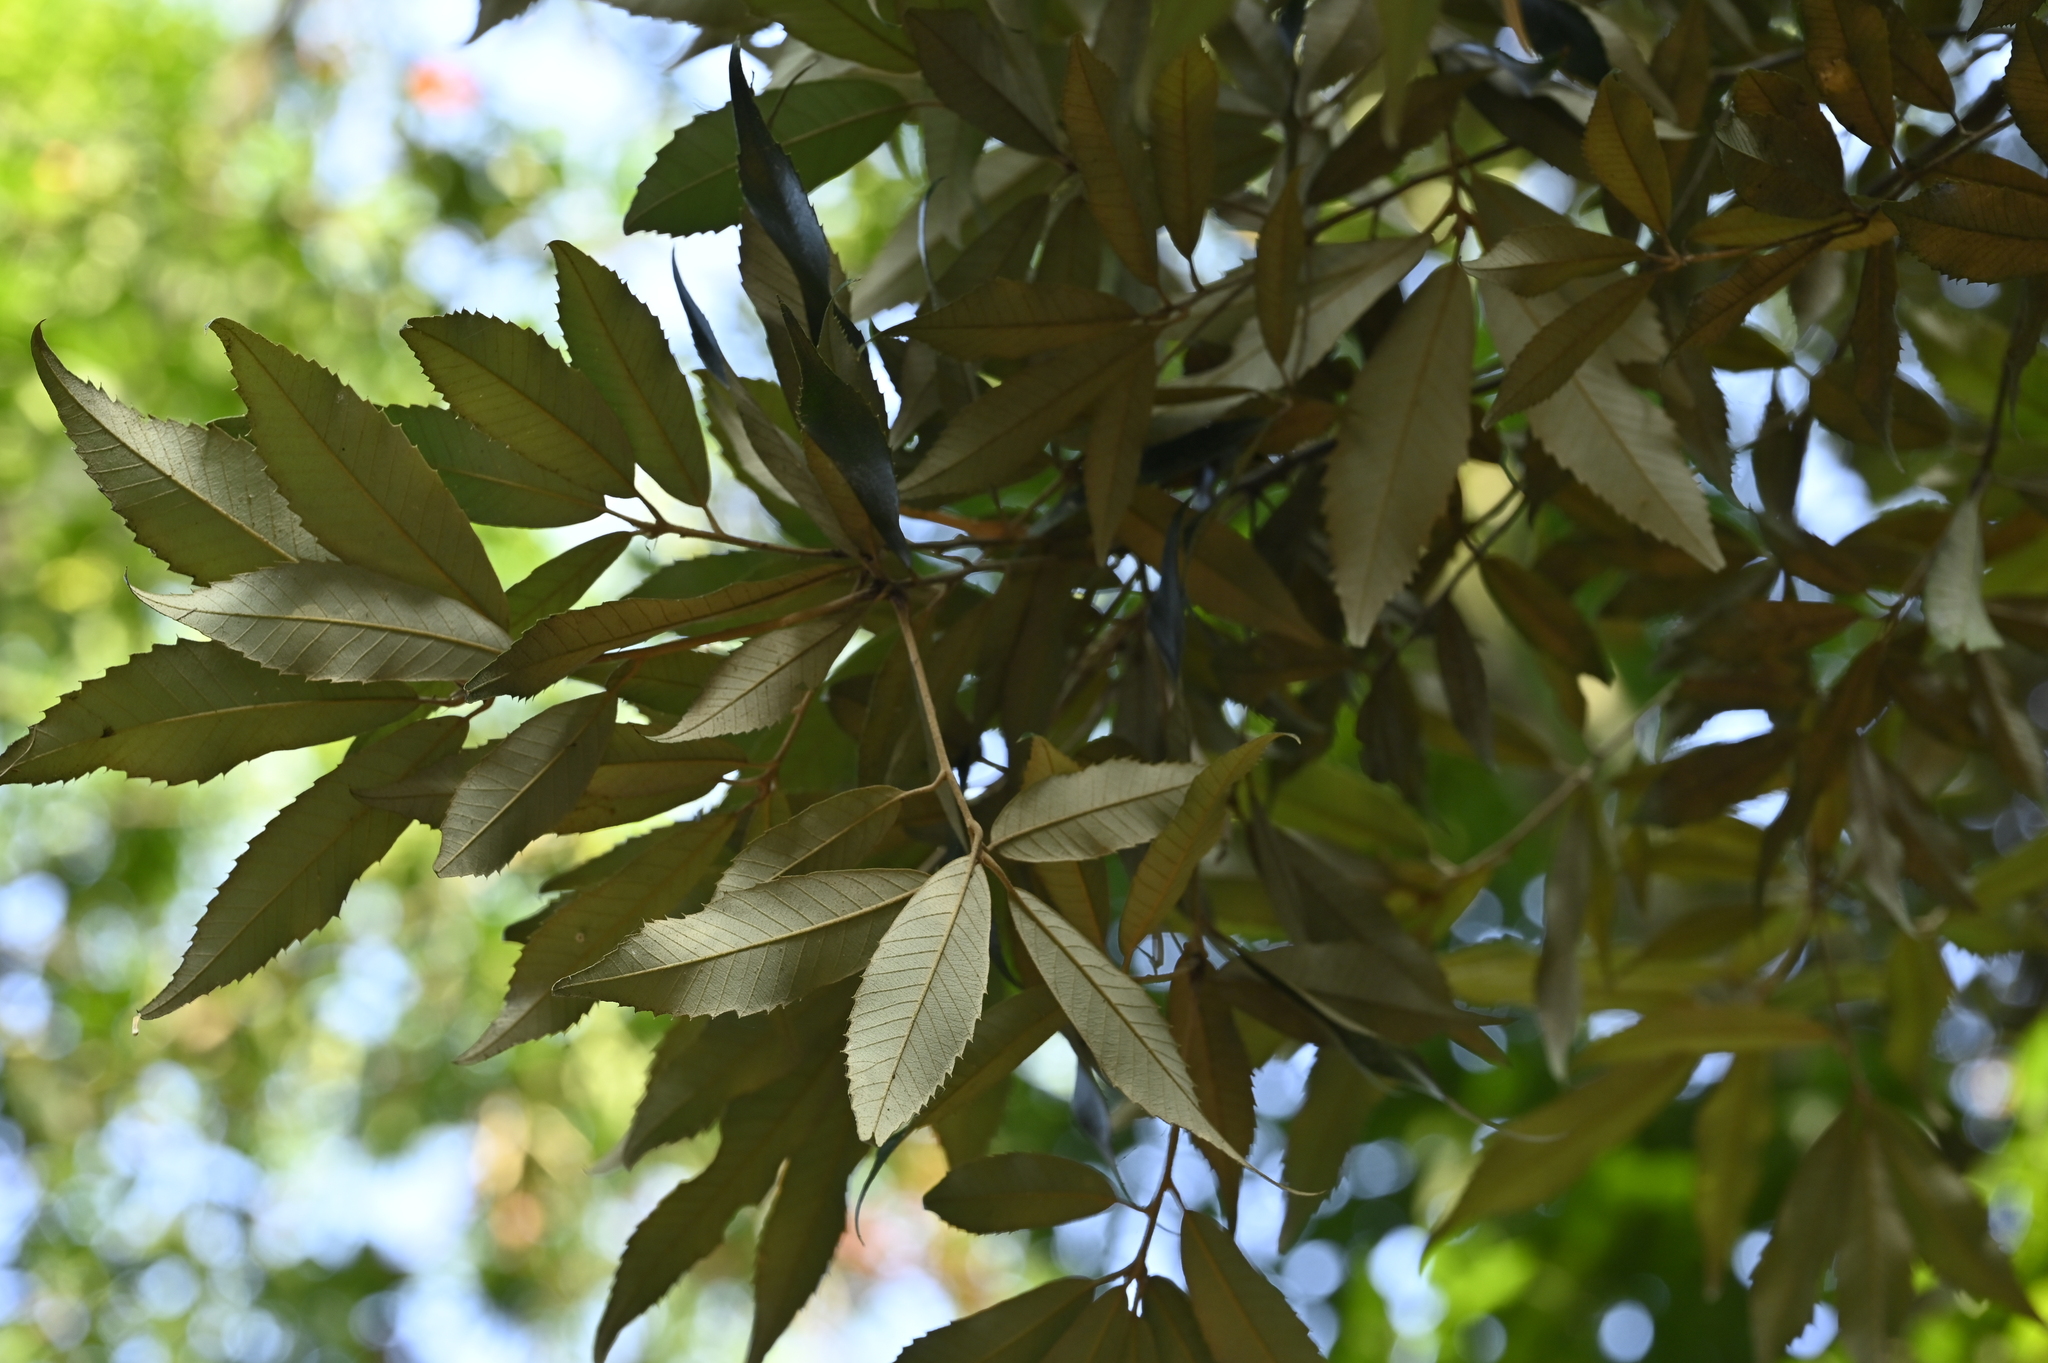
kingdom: Plantae
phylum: Tracheophyta
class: Magnoliopsida
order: Fagales
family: Fagaceae
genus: Quercus
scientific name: Quercus gilva
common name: Redbark oak
